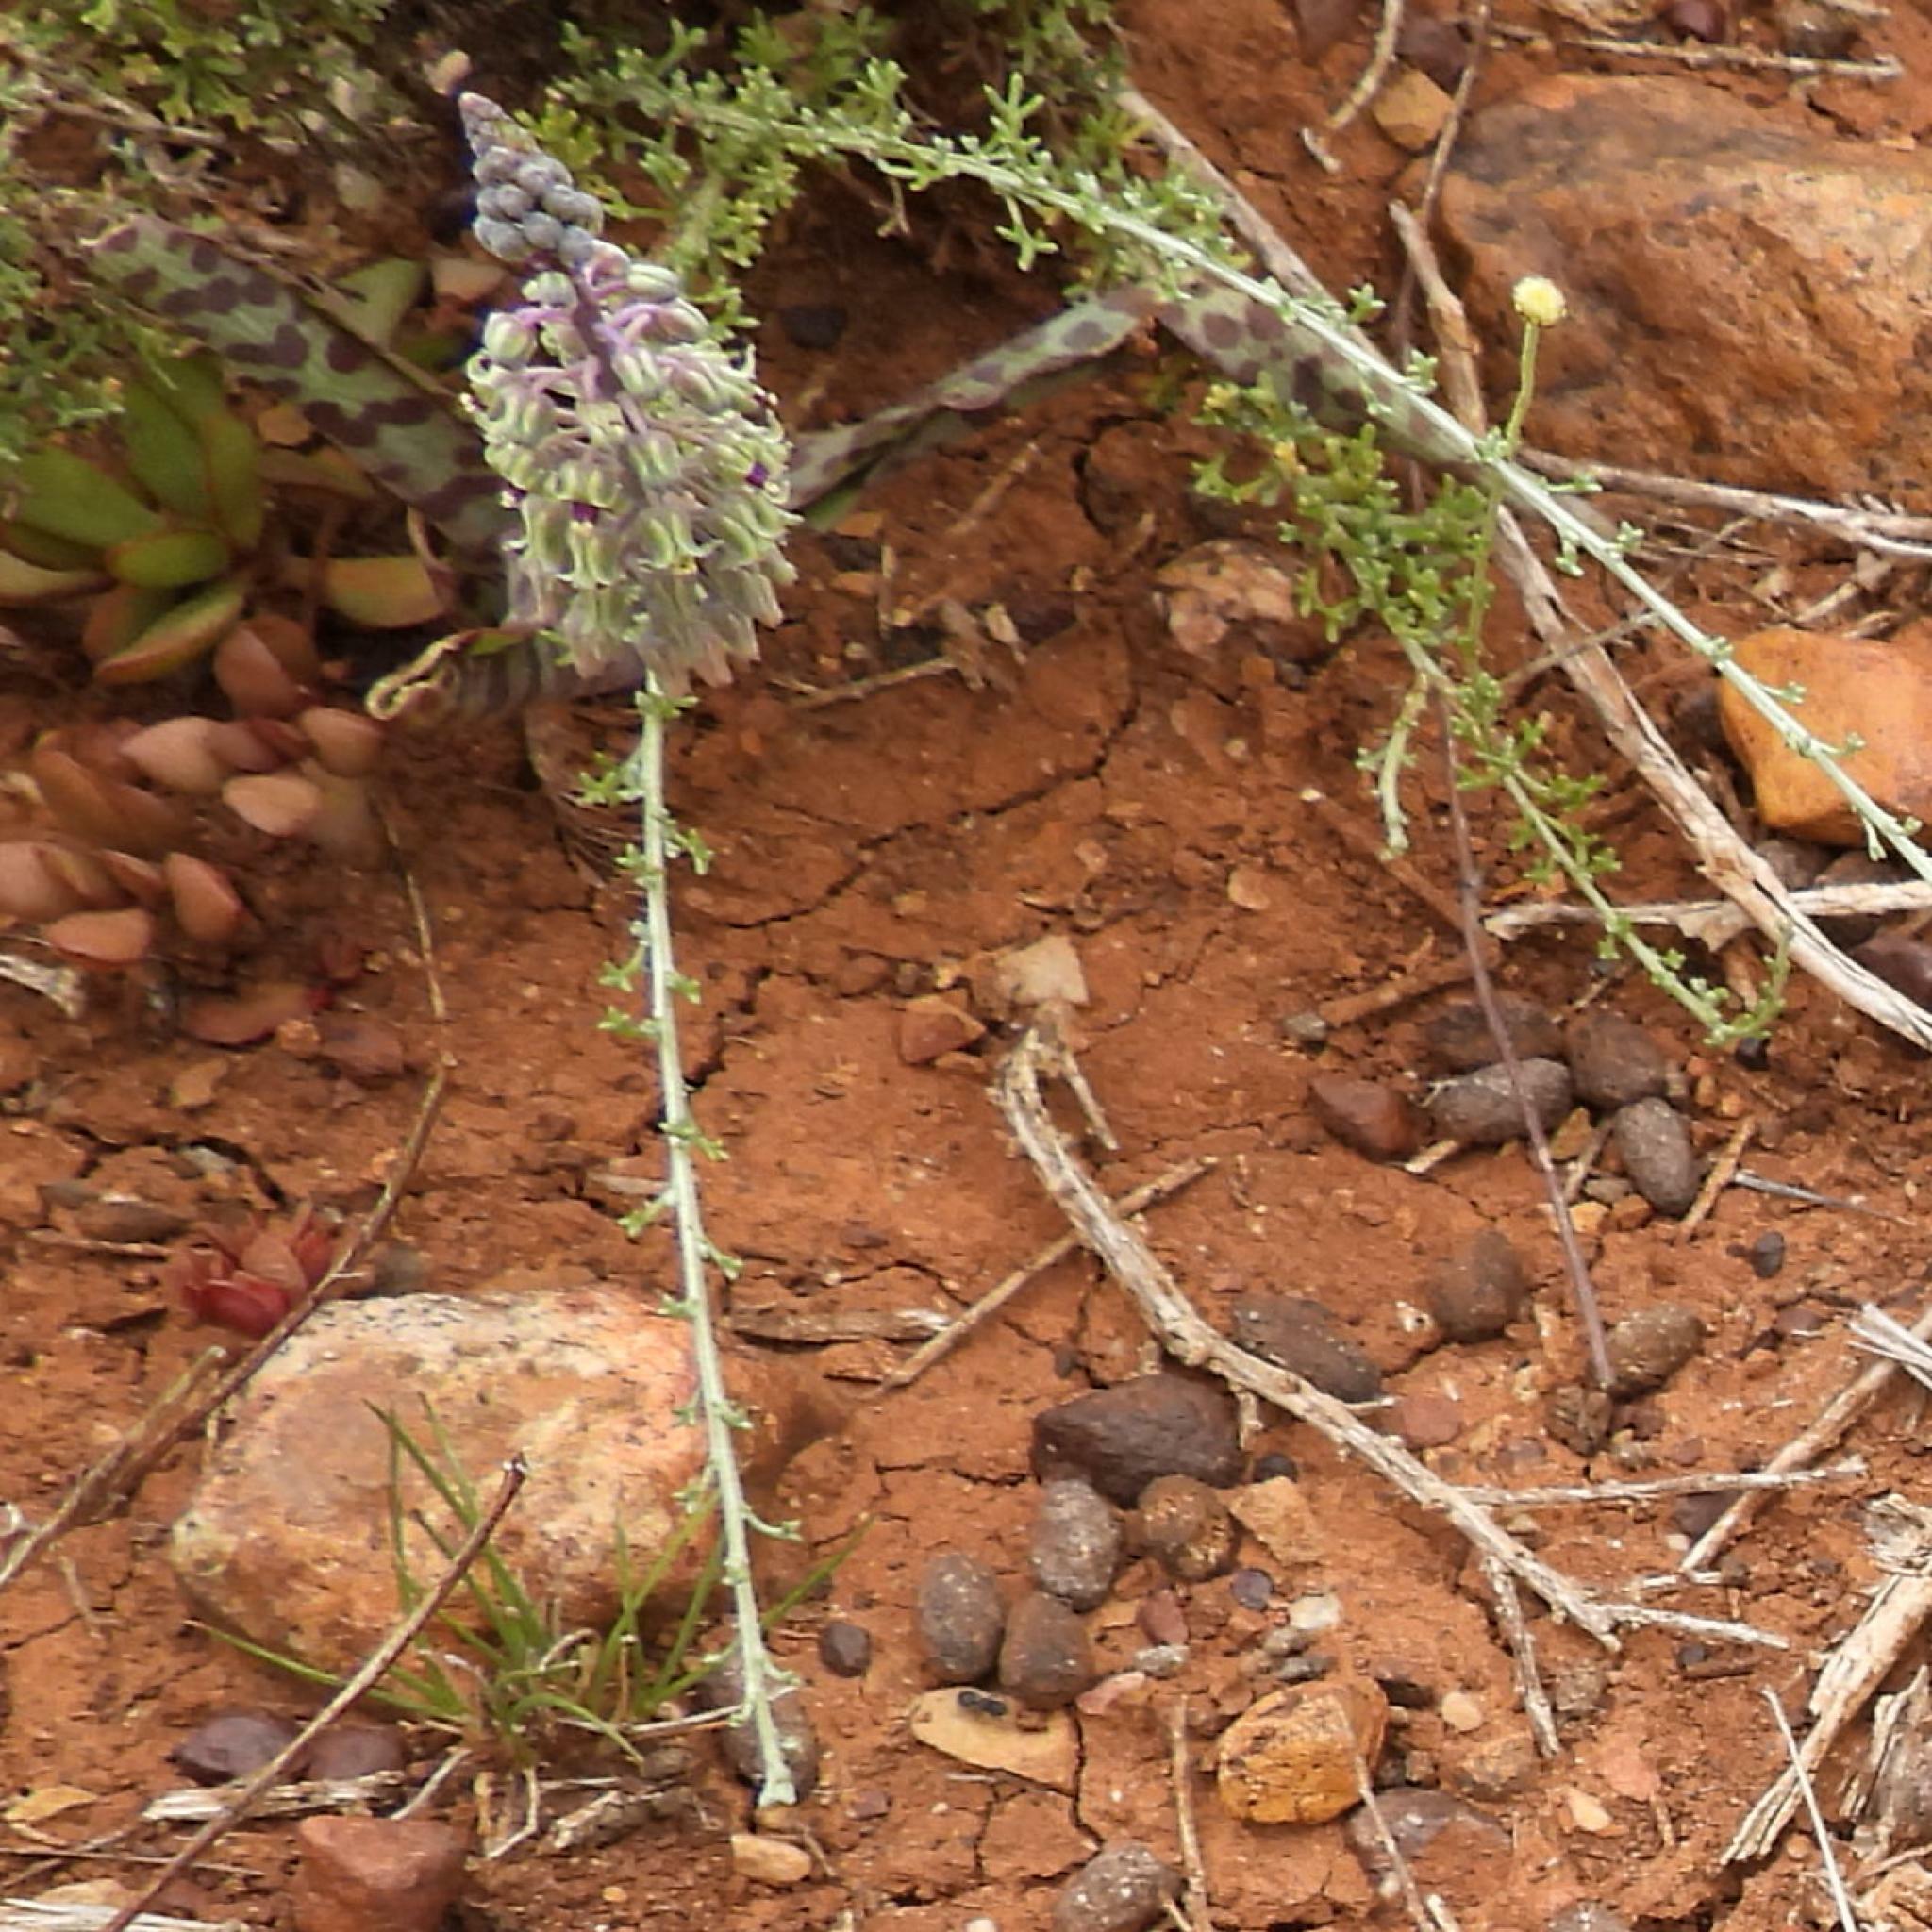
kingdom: Plantae
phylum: Tracheophyta
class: Liliopsida
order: Asparagales
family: Asparagaceae
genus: Ledebouria
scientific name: Ledebouria ensifolia
